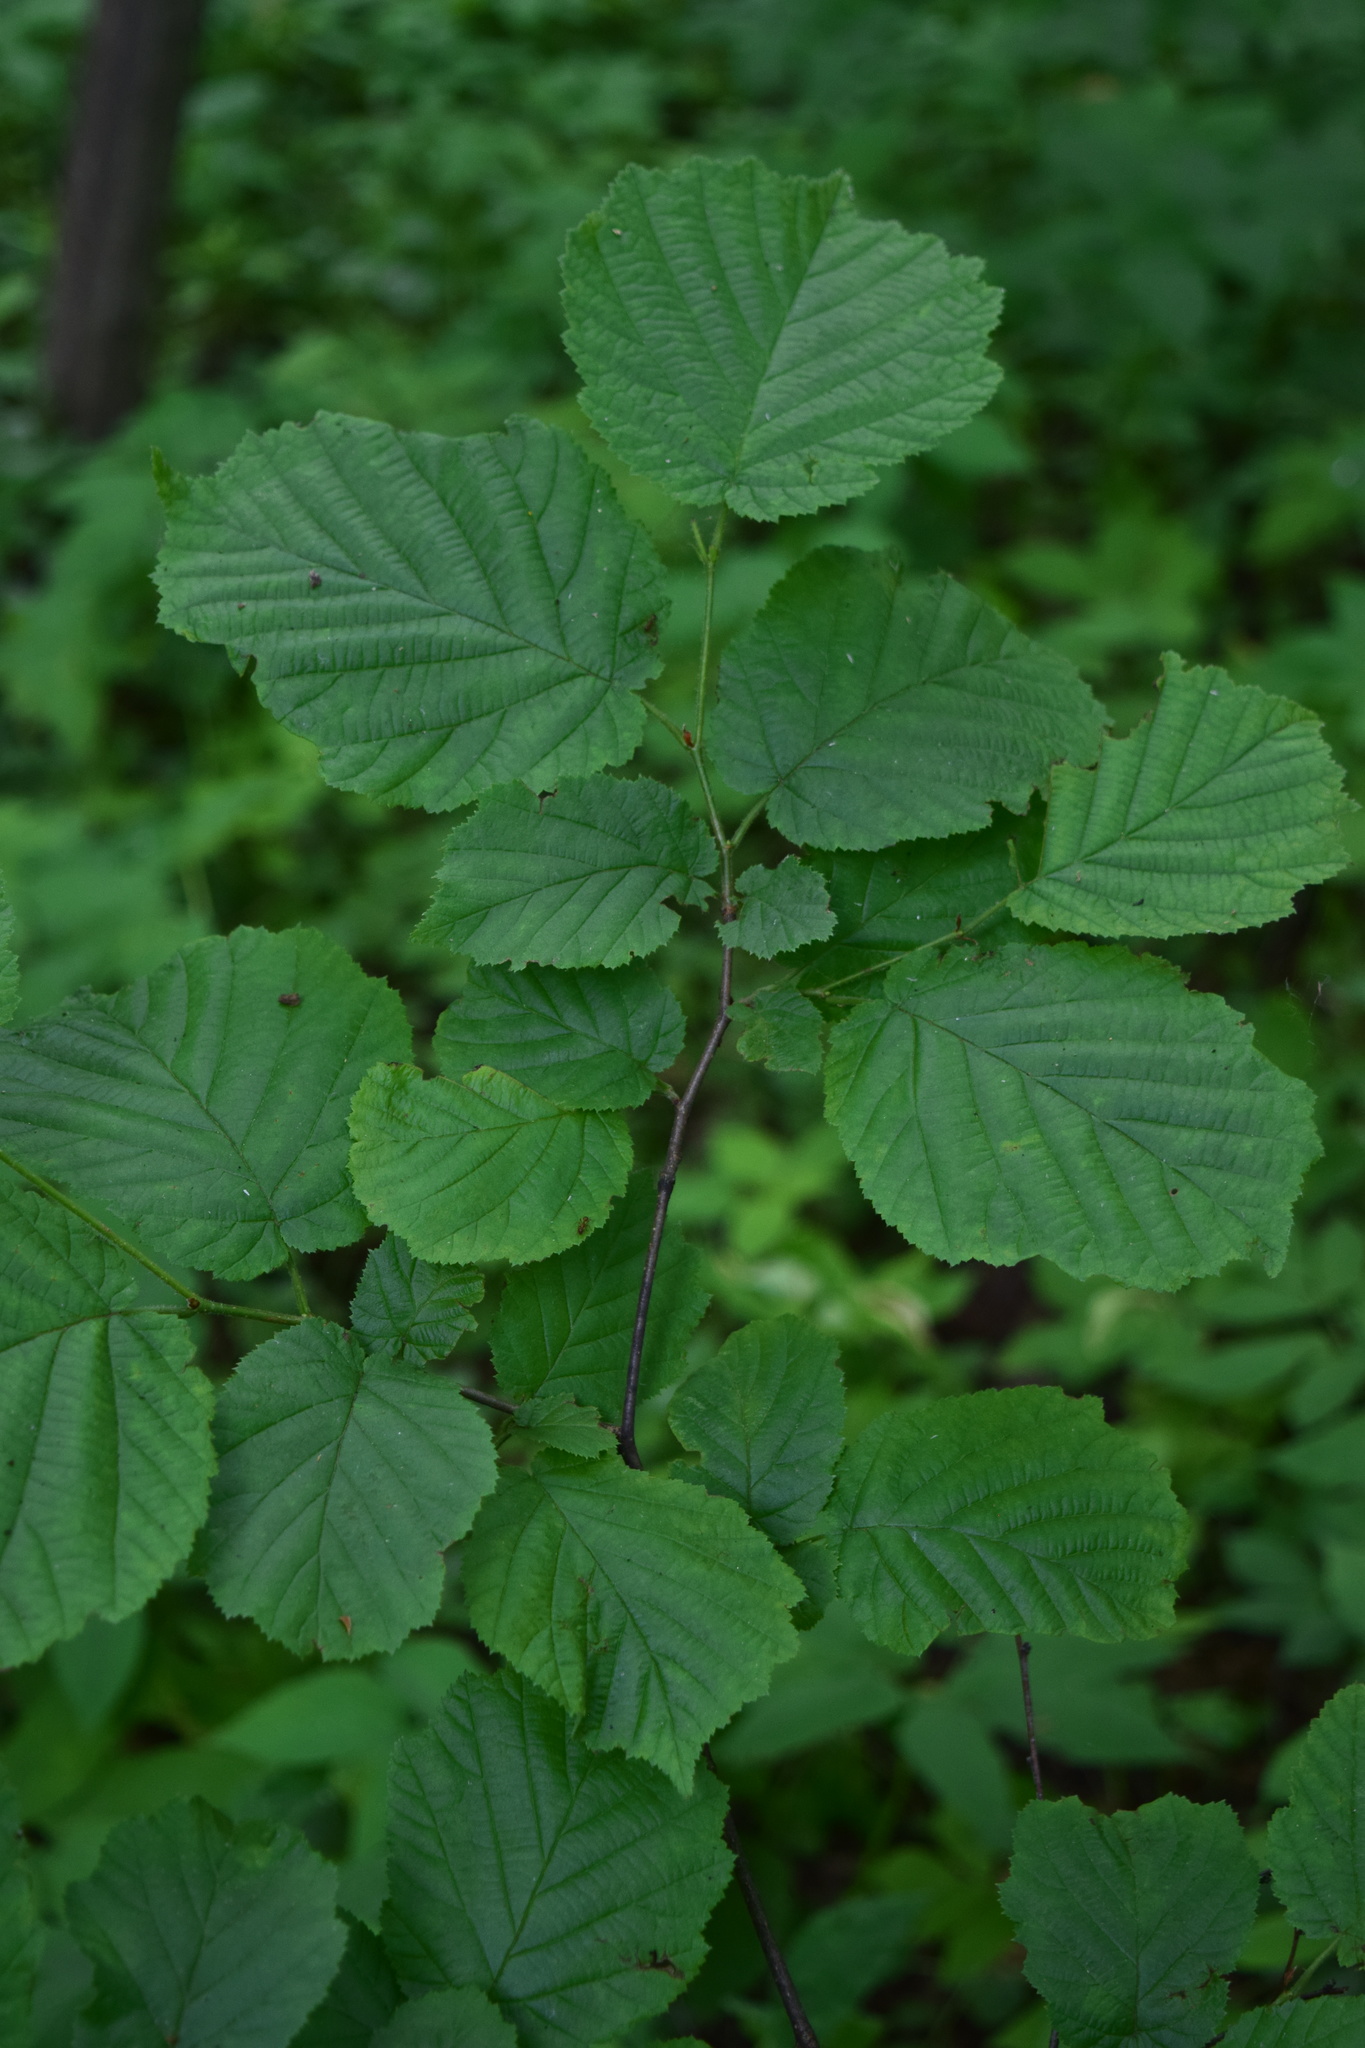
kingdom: Plantae
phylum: Tracheophyta
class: Magnoliopsida
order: Fagales
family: Betulaceae
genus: Corylus
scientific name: Corylus avellana
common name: European hazel
